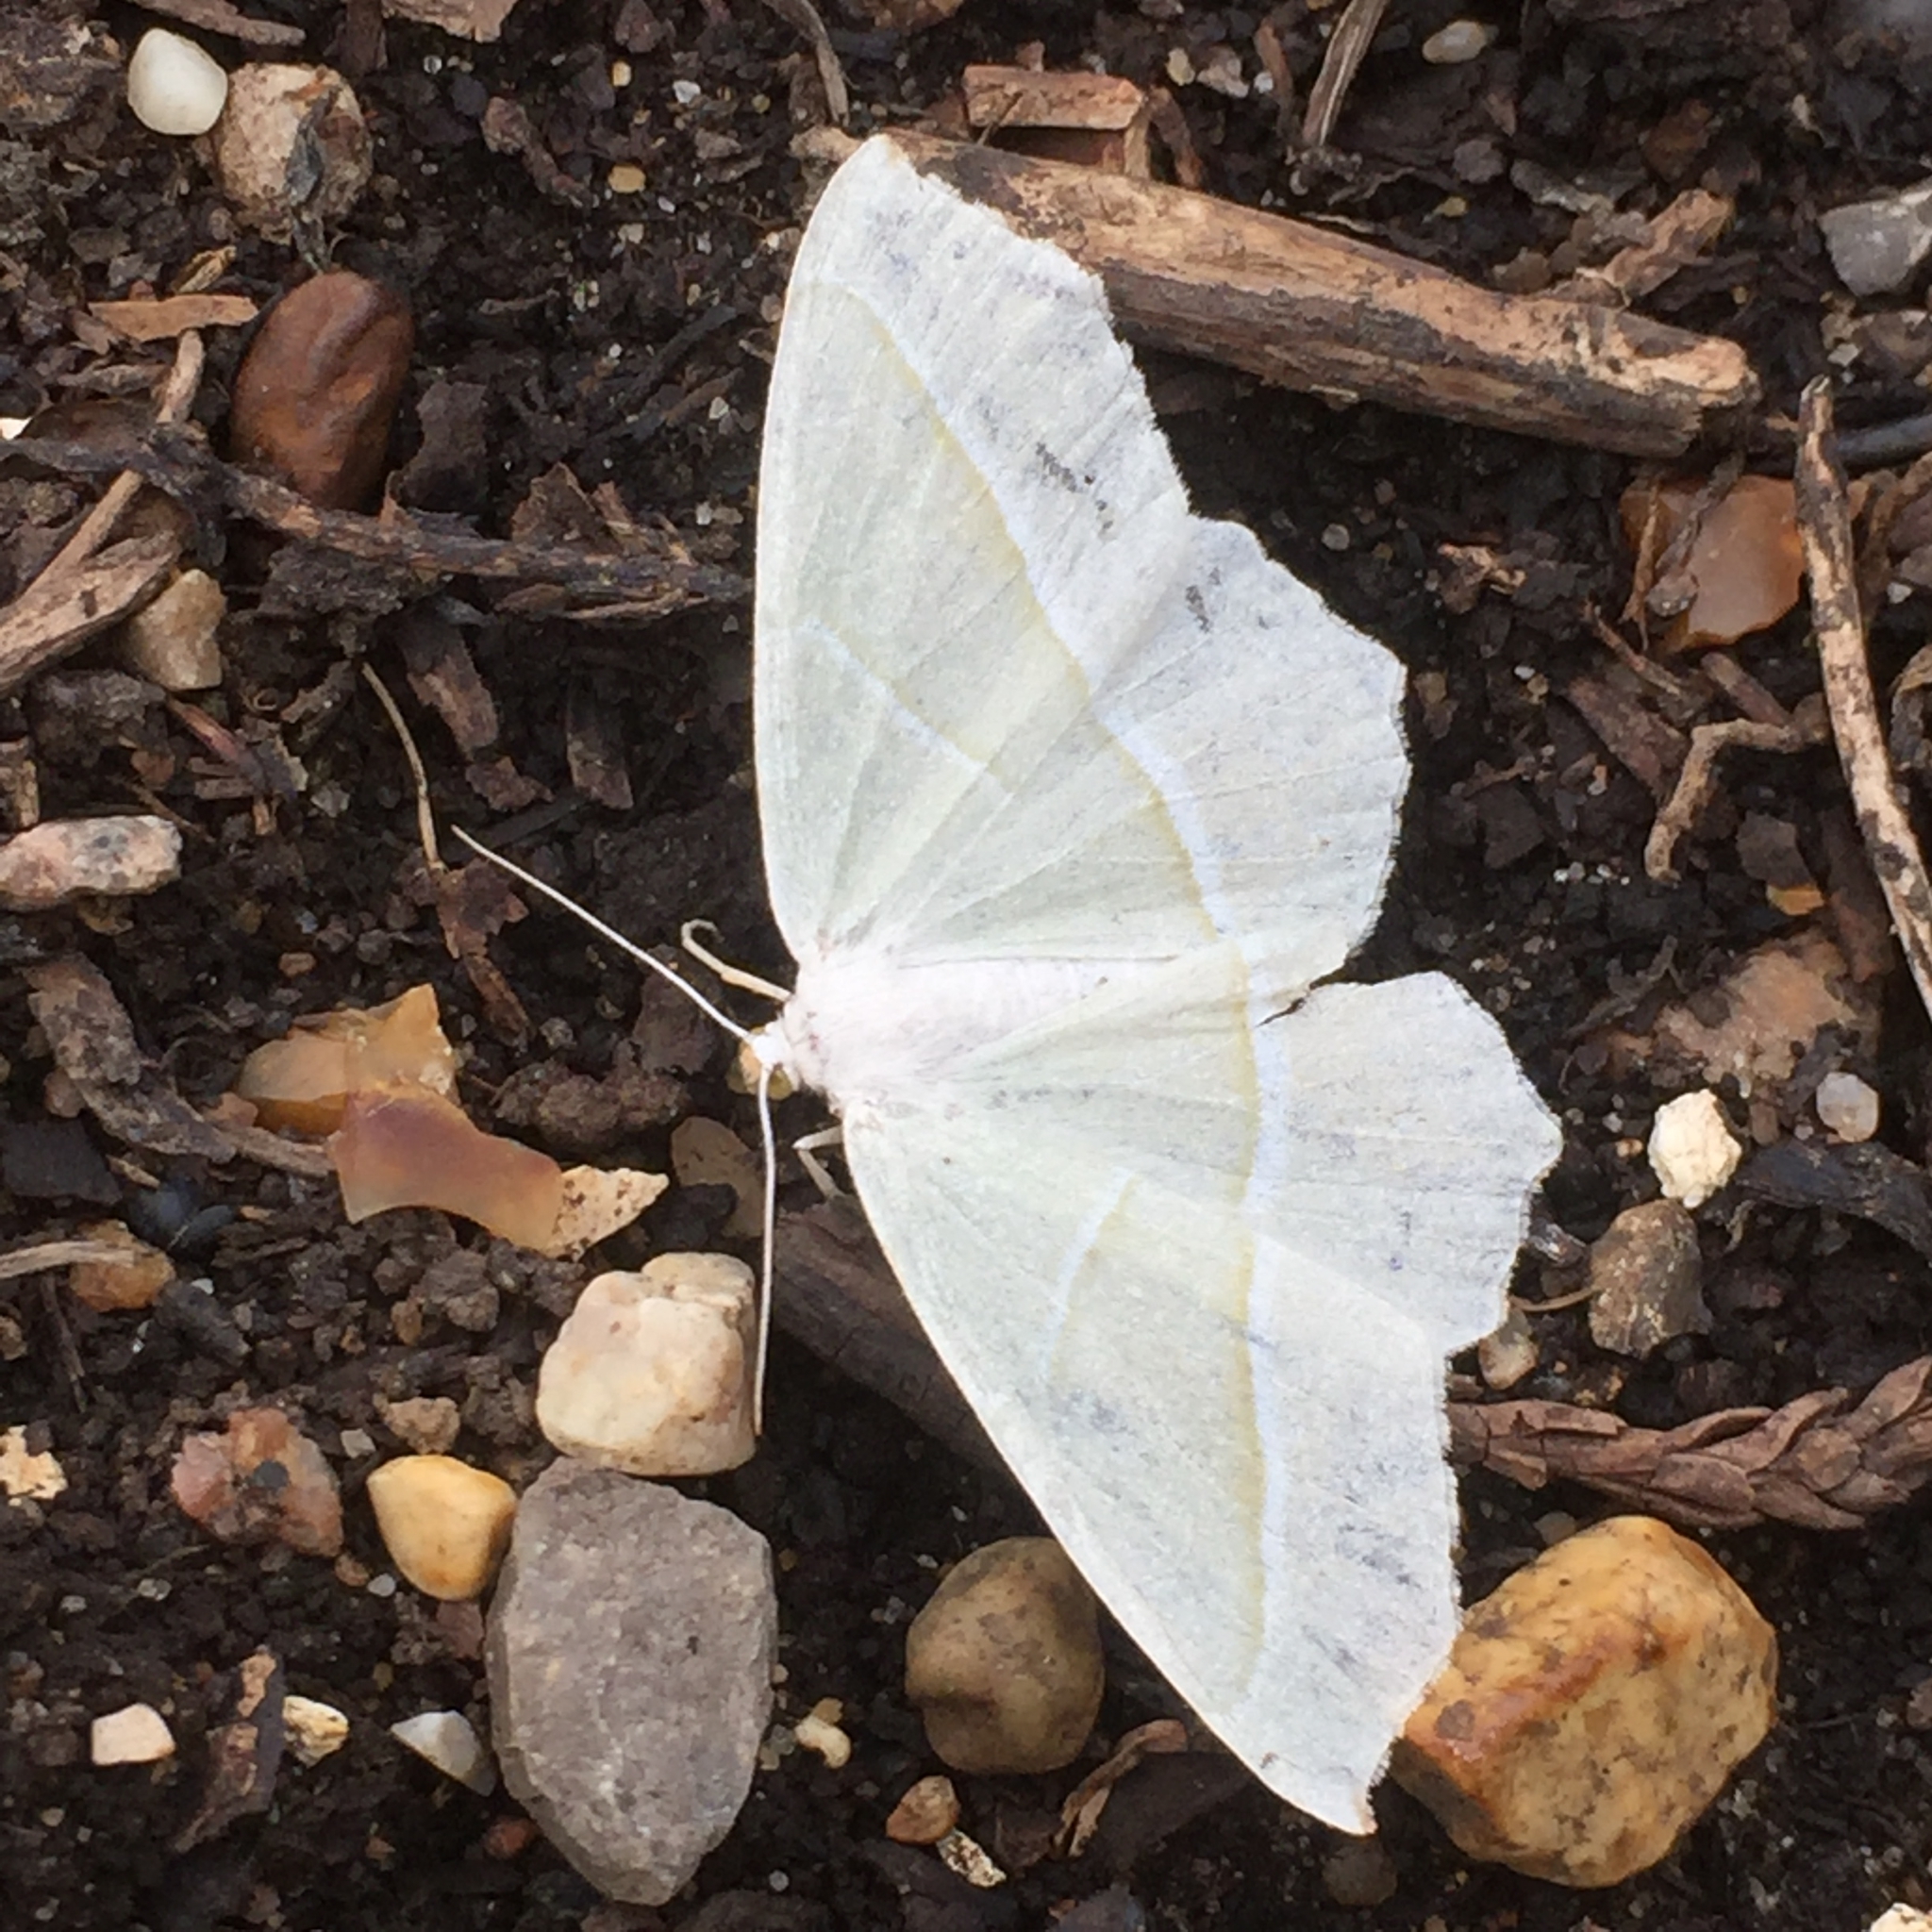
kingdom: Animalia
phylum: Arthropoda
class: Insecta
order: Lepidoptera
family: Geometridae
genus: Campaea
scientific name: Campaea margaritaria
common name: Light emerald
